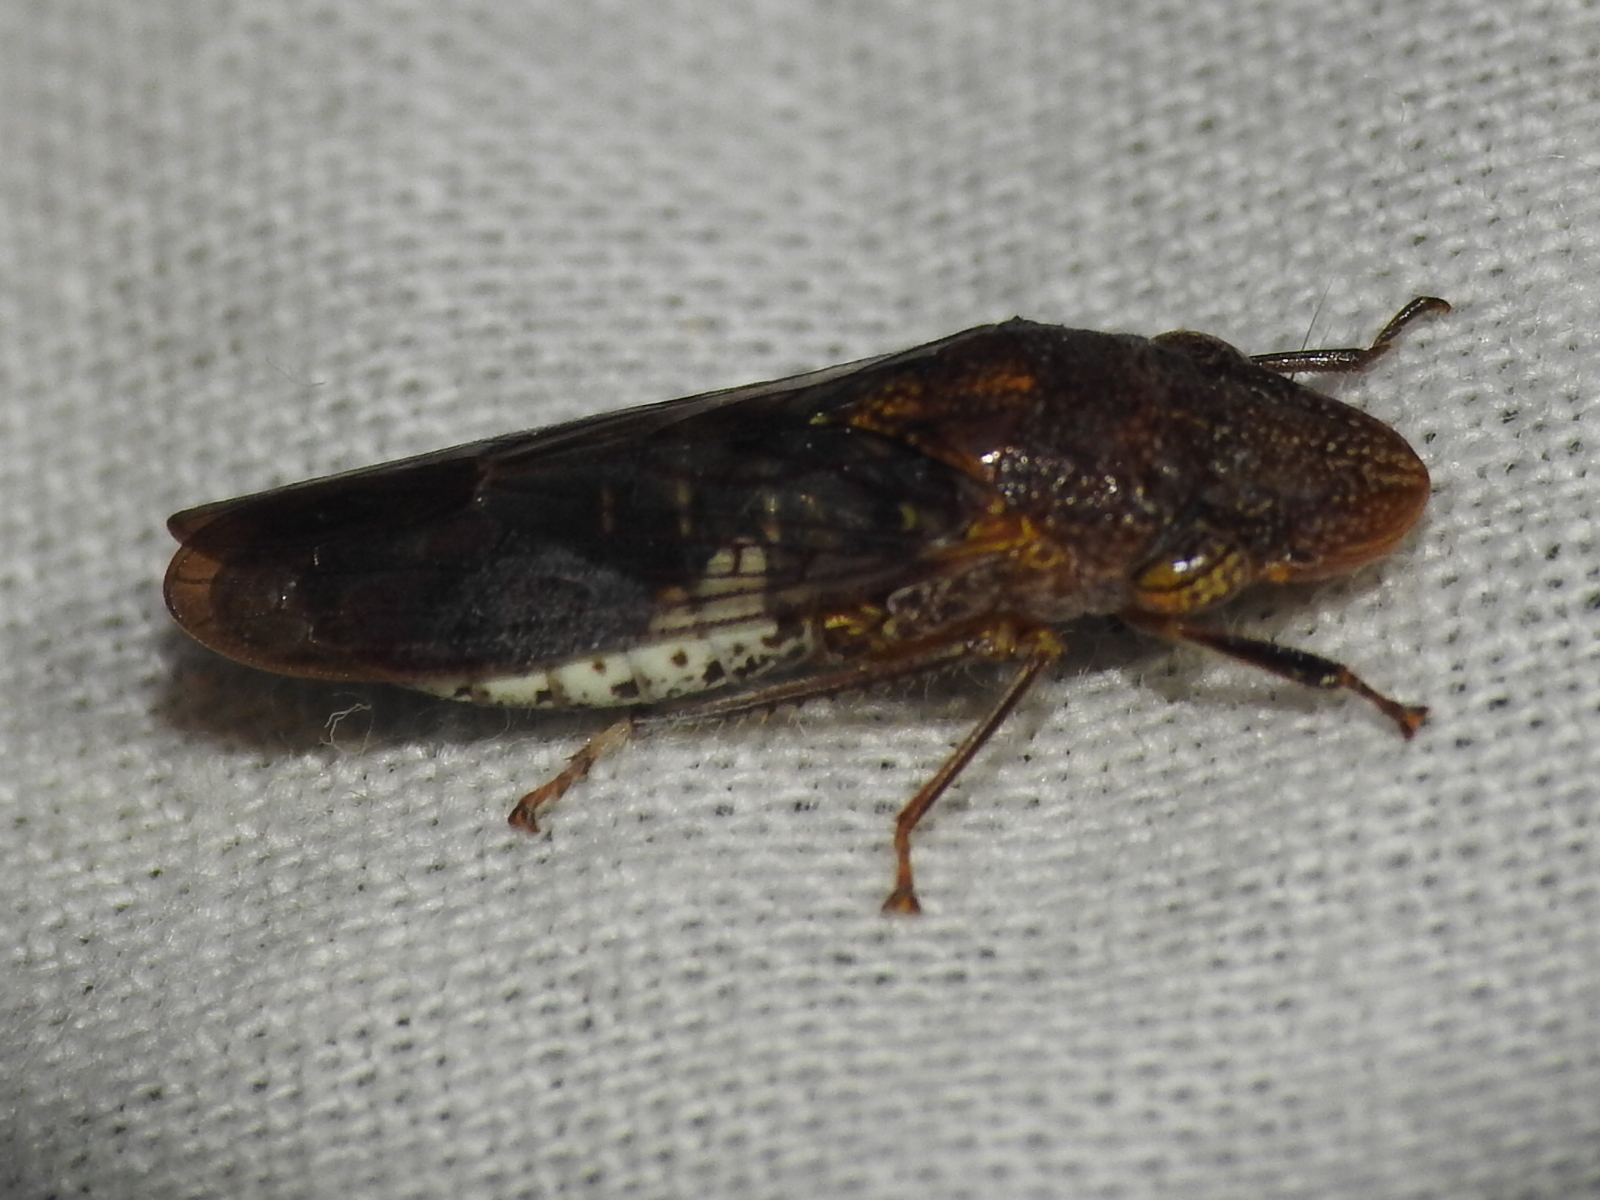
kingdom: Animalia
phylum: Arthropoda
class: Insecta
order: Hemiptera
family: Cicadellidae
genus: Homalodisca
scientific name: Homalodisca vitripennis
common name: Glassy-winged sharpshooter
